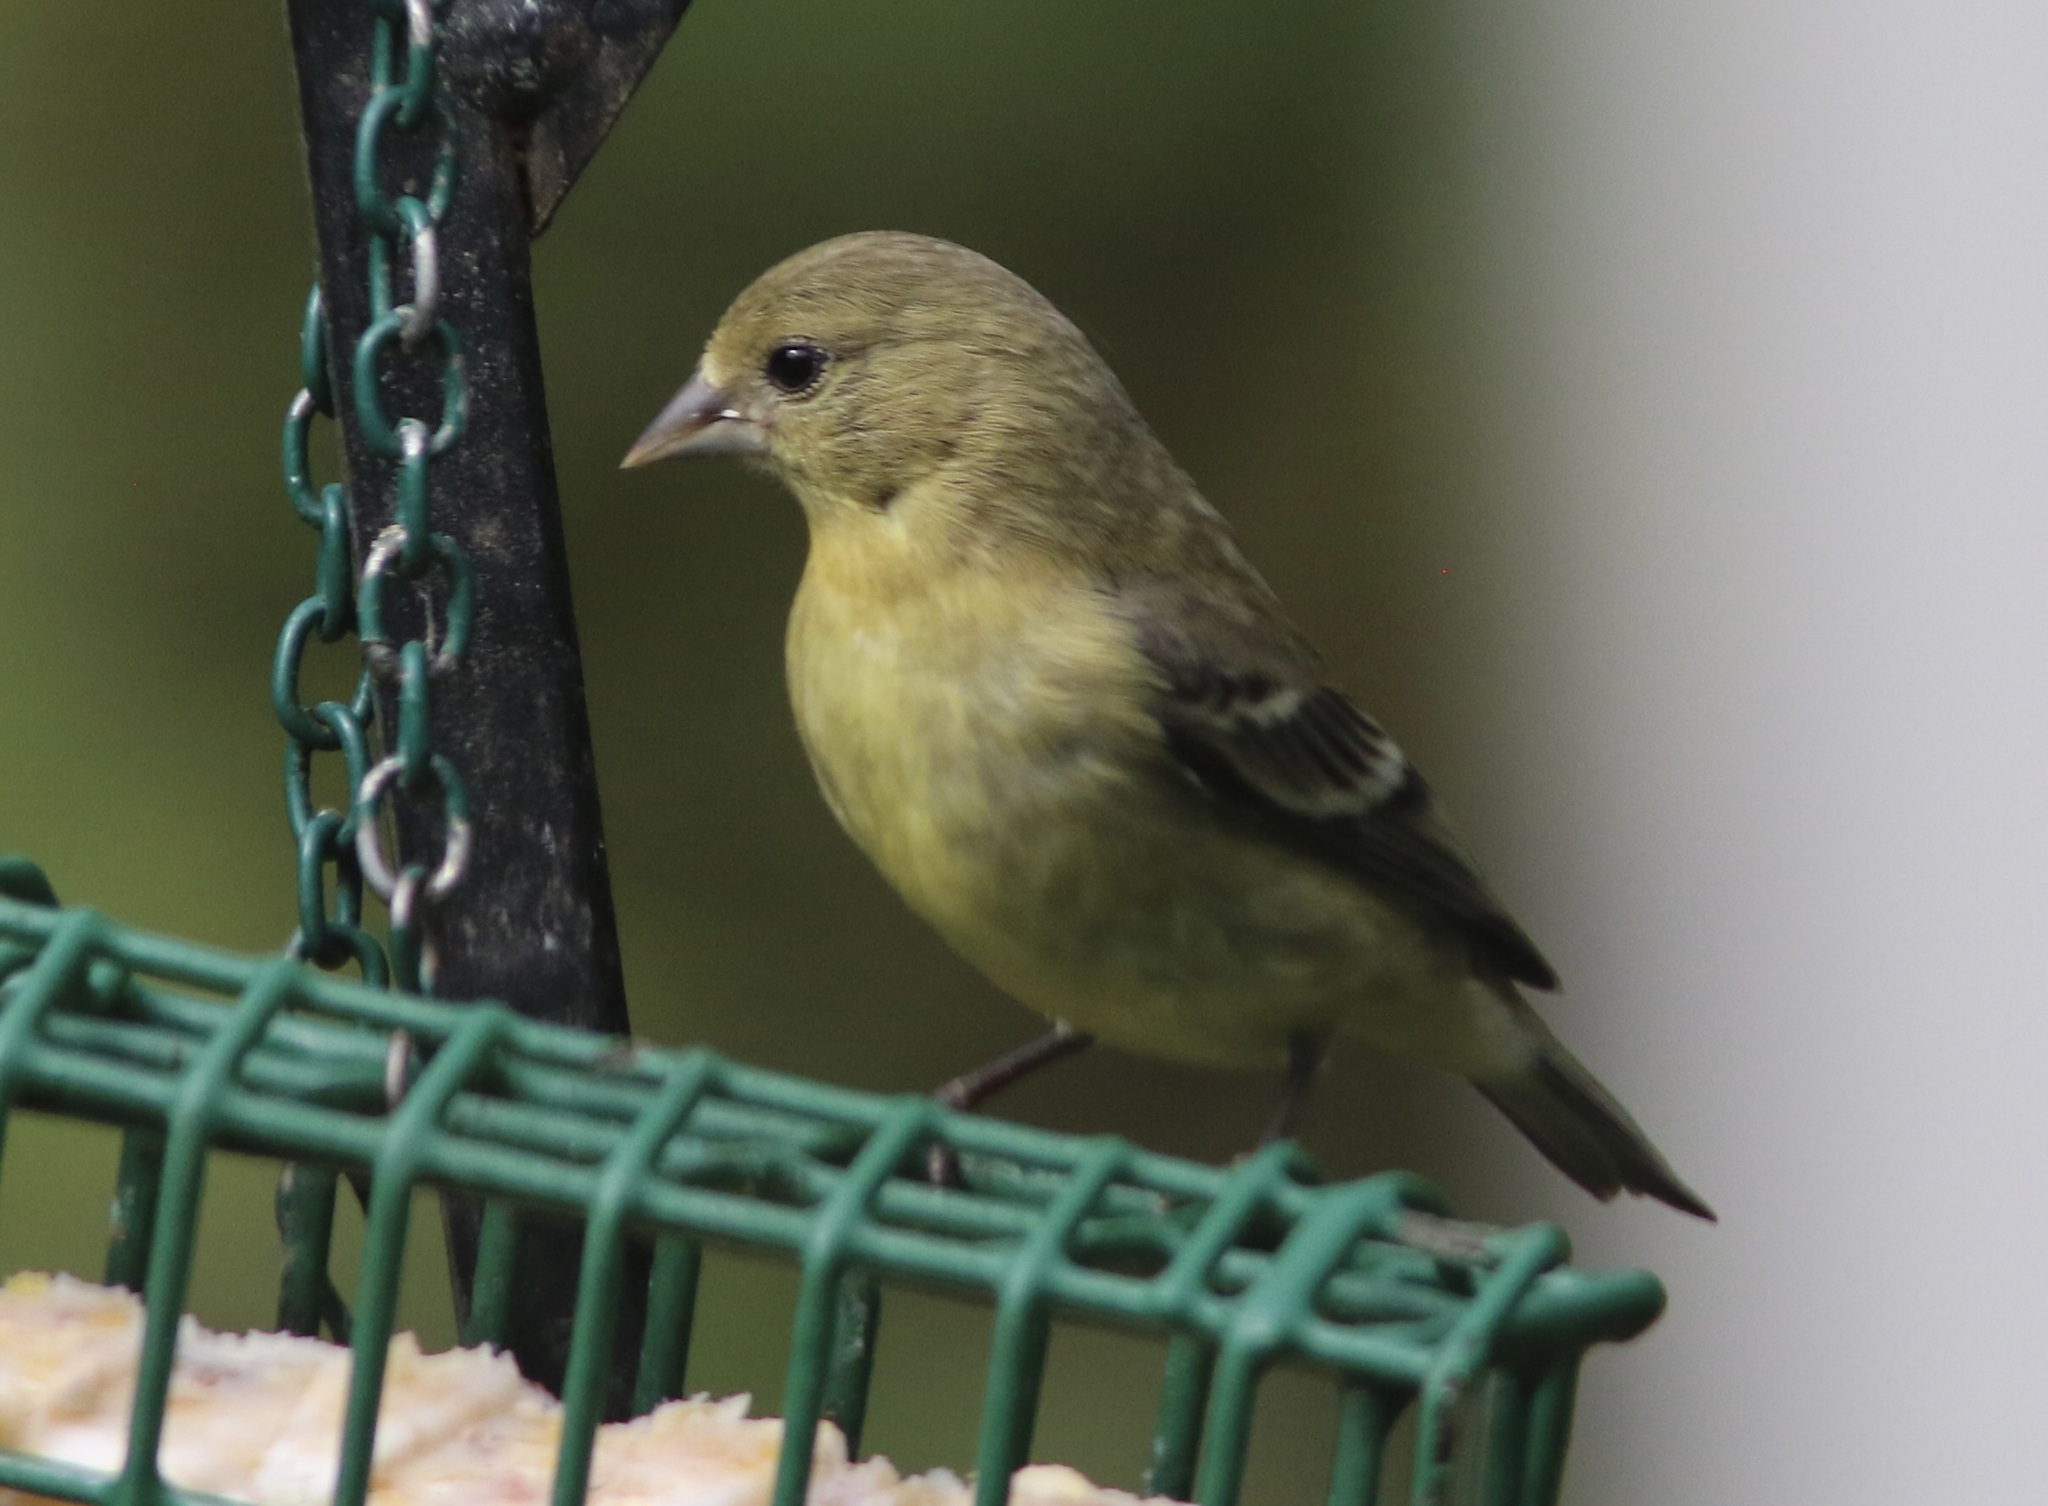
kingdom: Animalia
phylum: Chordata
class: Aves
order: Passeriformes
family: Fringillidae
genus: Spinus
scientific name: Spinus psaltria
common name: Lesser goldfinch
